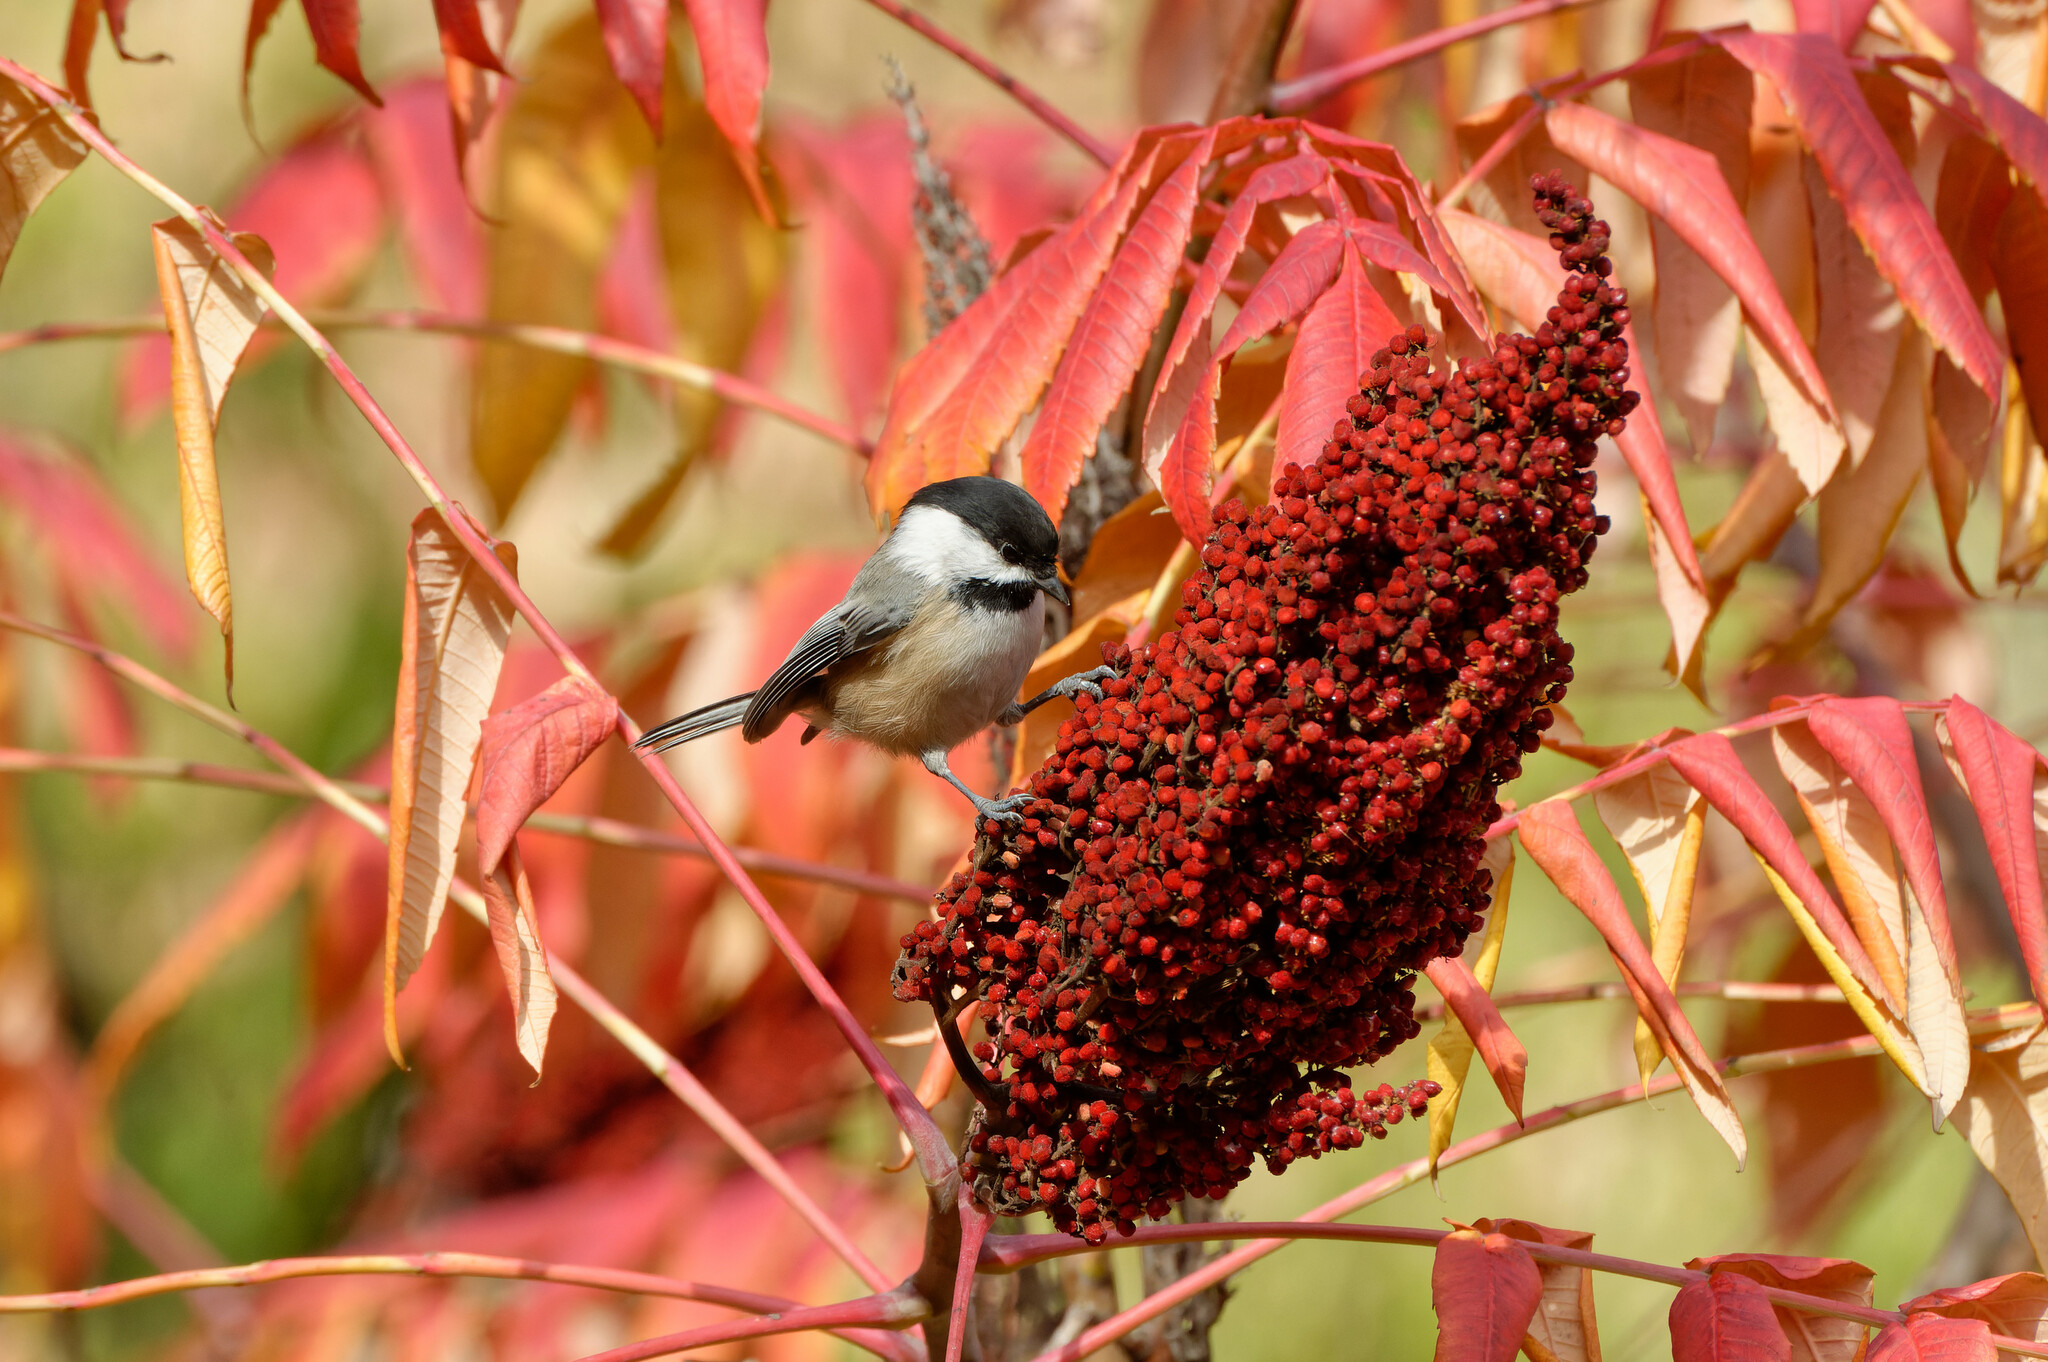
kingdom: Animalia
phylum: Chordata
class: Aves
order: Passeriformes
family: Paridae
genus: Poecile
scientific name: Poecile atricapillus
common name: Black-capped chickadee
